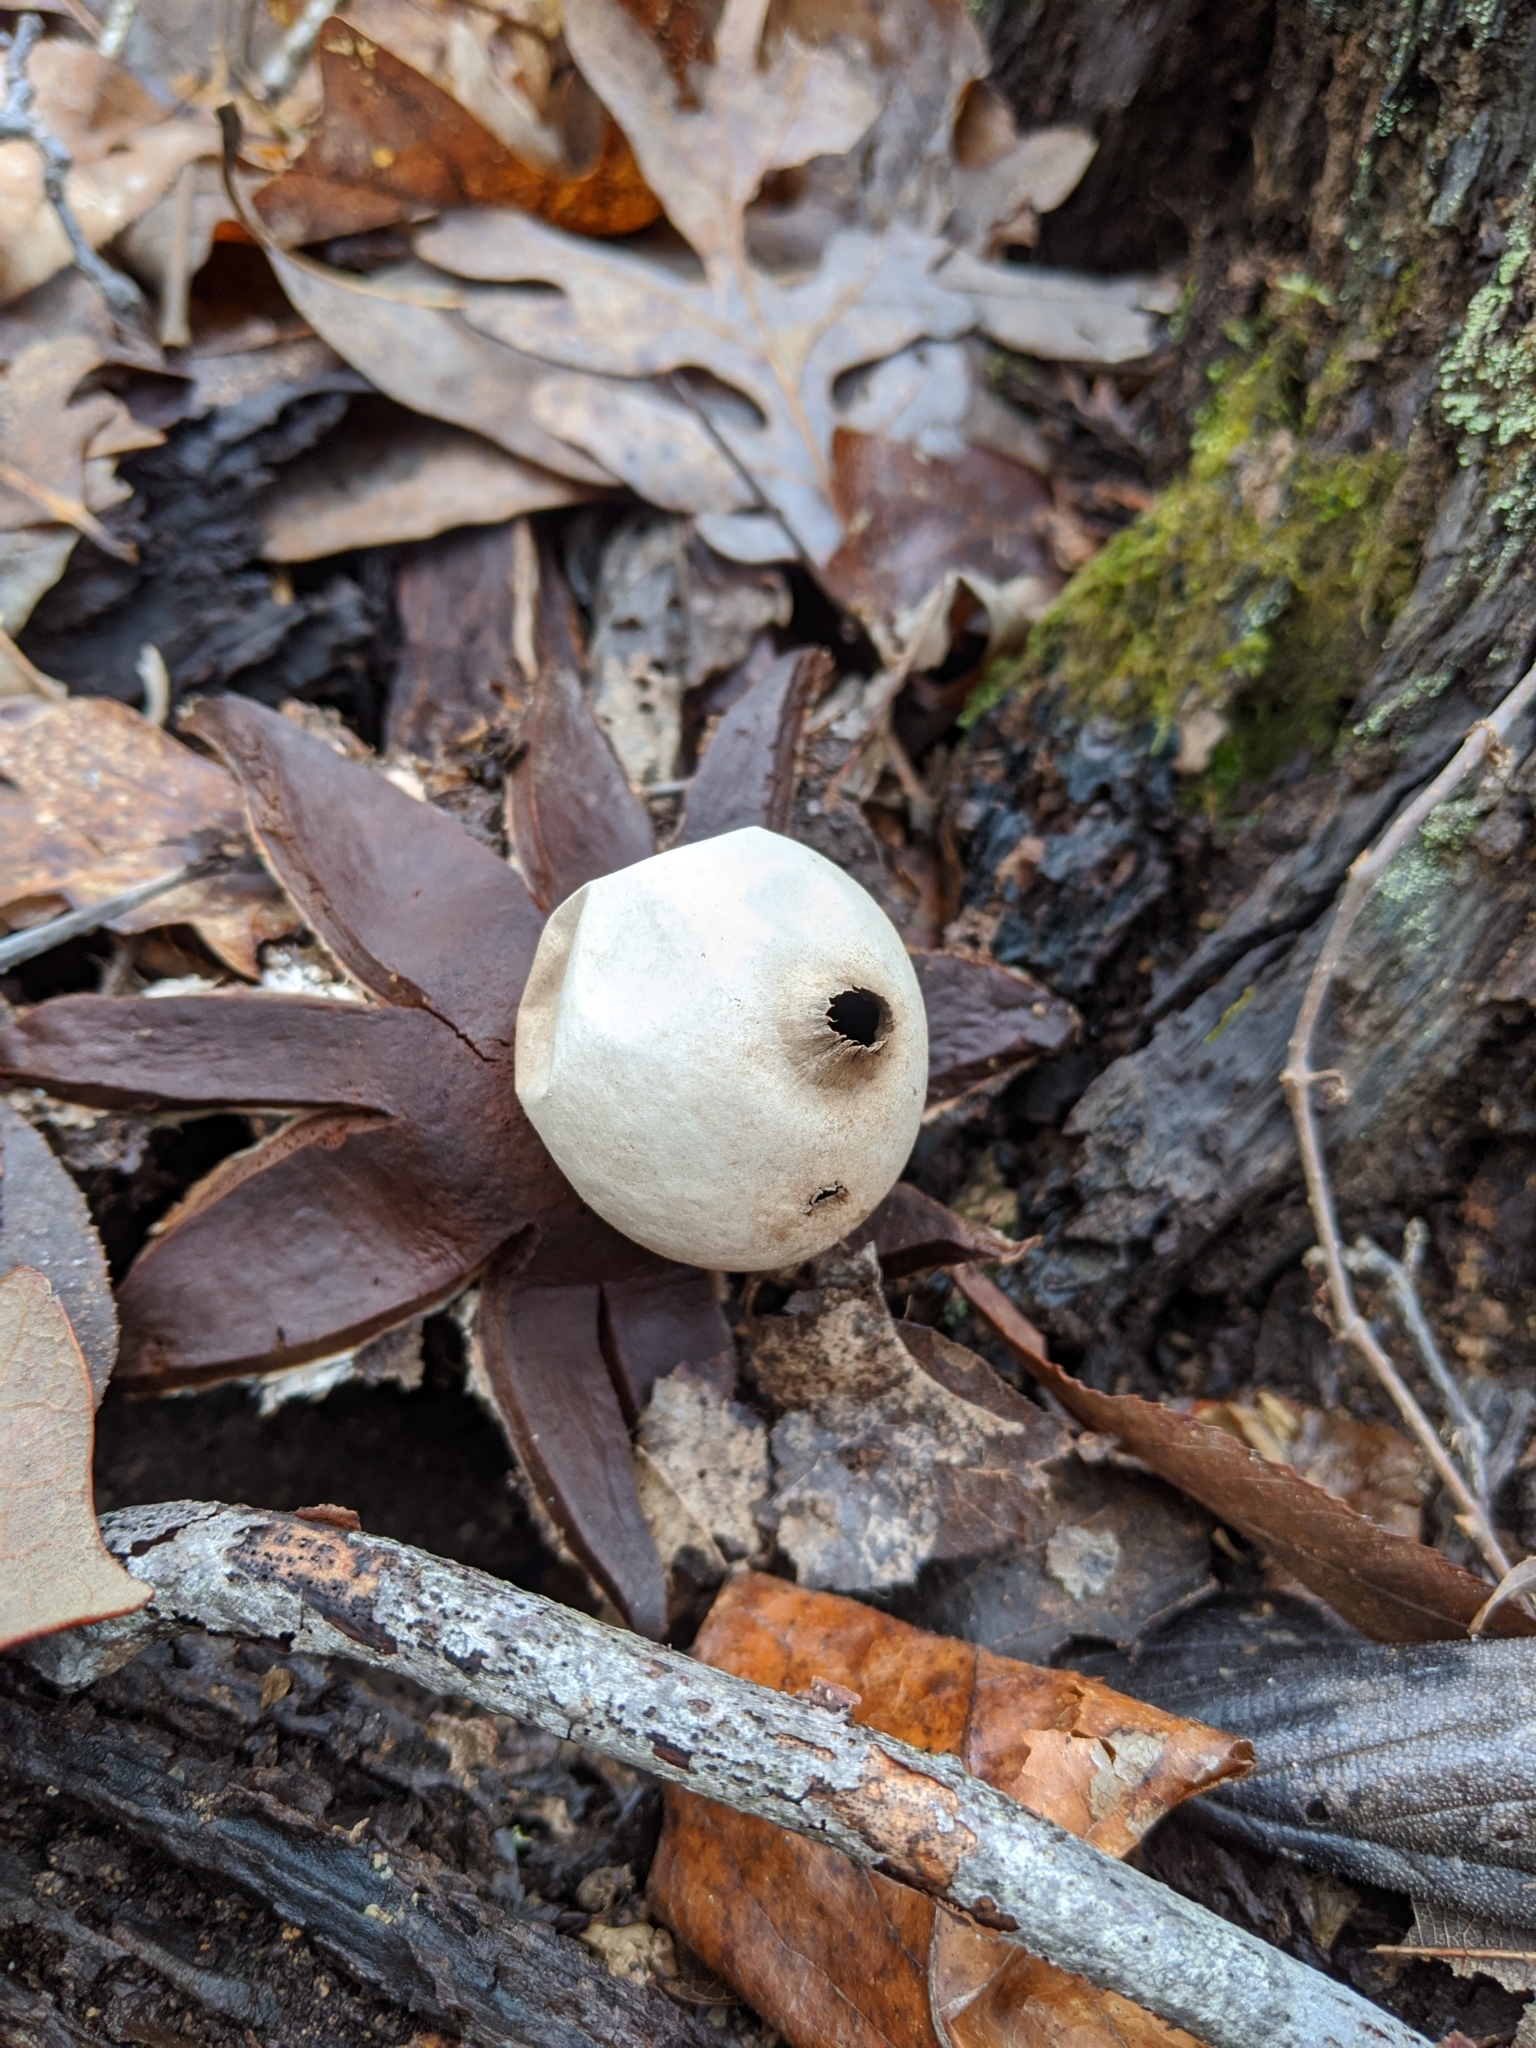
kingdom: Fungi
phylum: Basidiomycota
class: Agaricomycetes
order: Geastrales
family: Geastraceae
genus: Geastrum
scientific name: Geastrum rufescens
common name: Rosy earthstar
